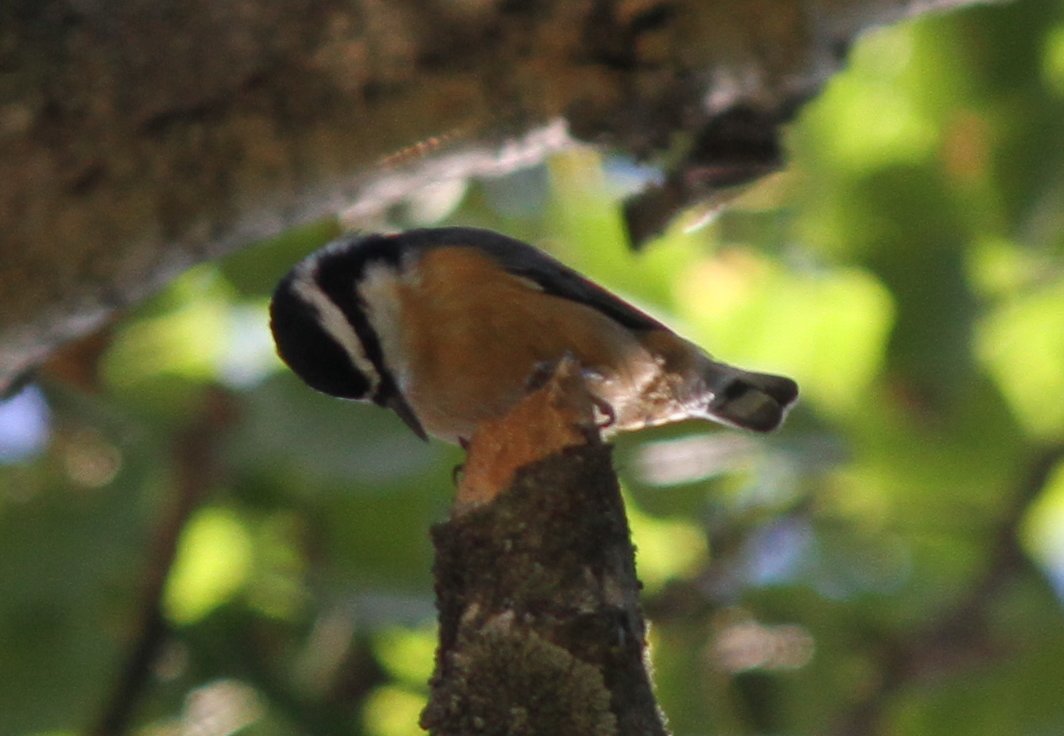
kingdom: Animalia
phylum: Chordata
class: Aves
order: Passeriformes
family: Sittidae
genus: Sitta
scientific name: Sitta canadensis
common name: Red-breasted nuthatch
